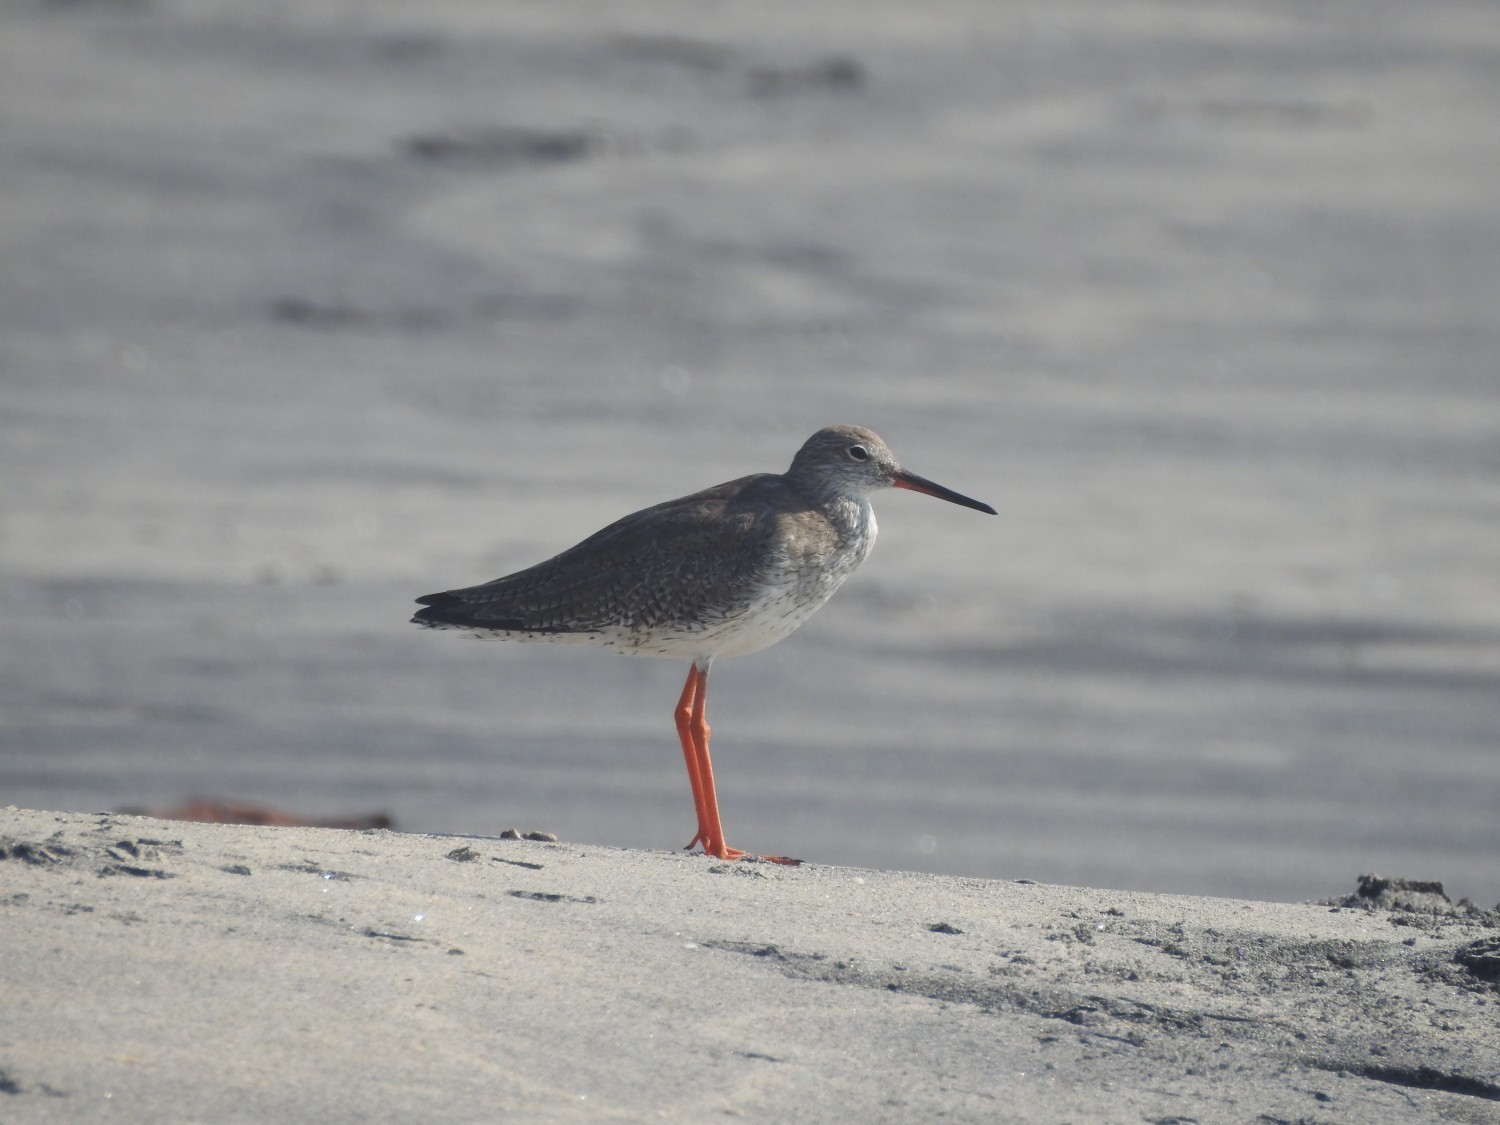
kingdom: Animalia
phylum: Chordata
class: Aves
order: Charadriiformes
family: Scolopacidae
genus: Tringa
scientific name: Tringa totanus
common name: Common redshank
